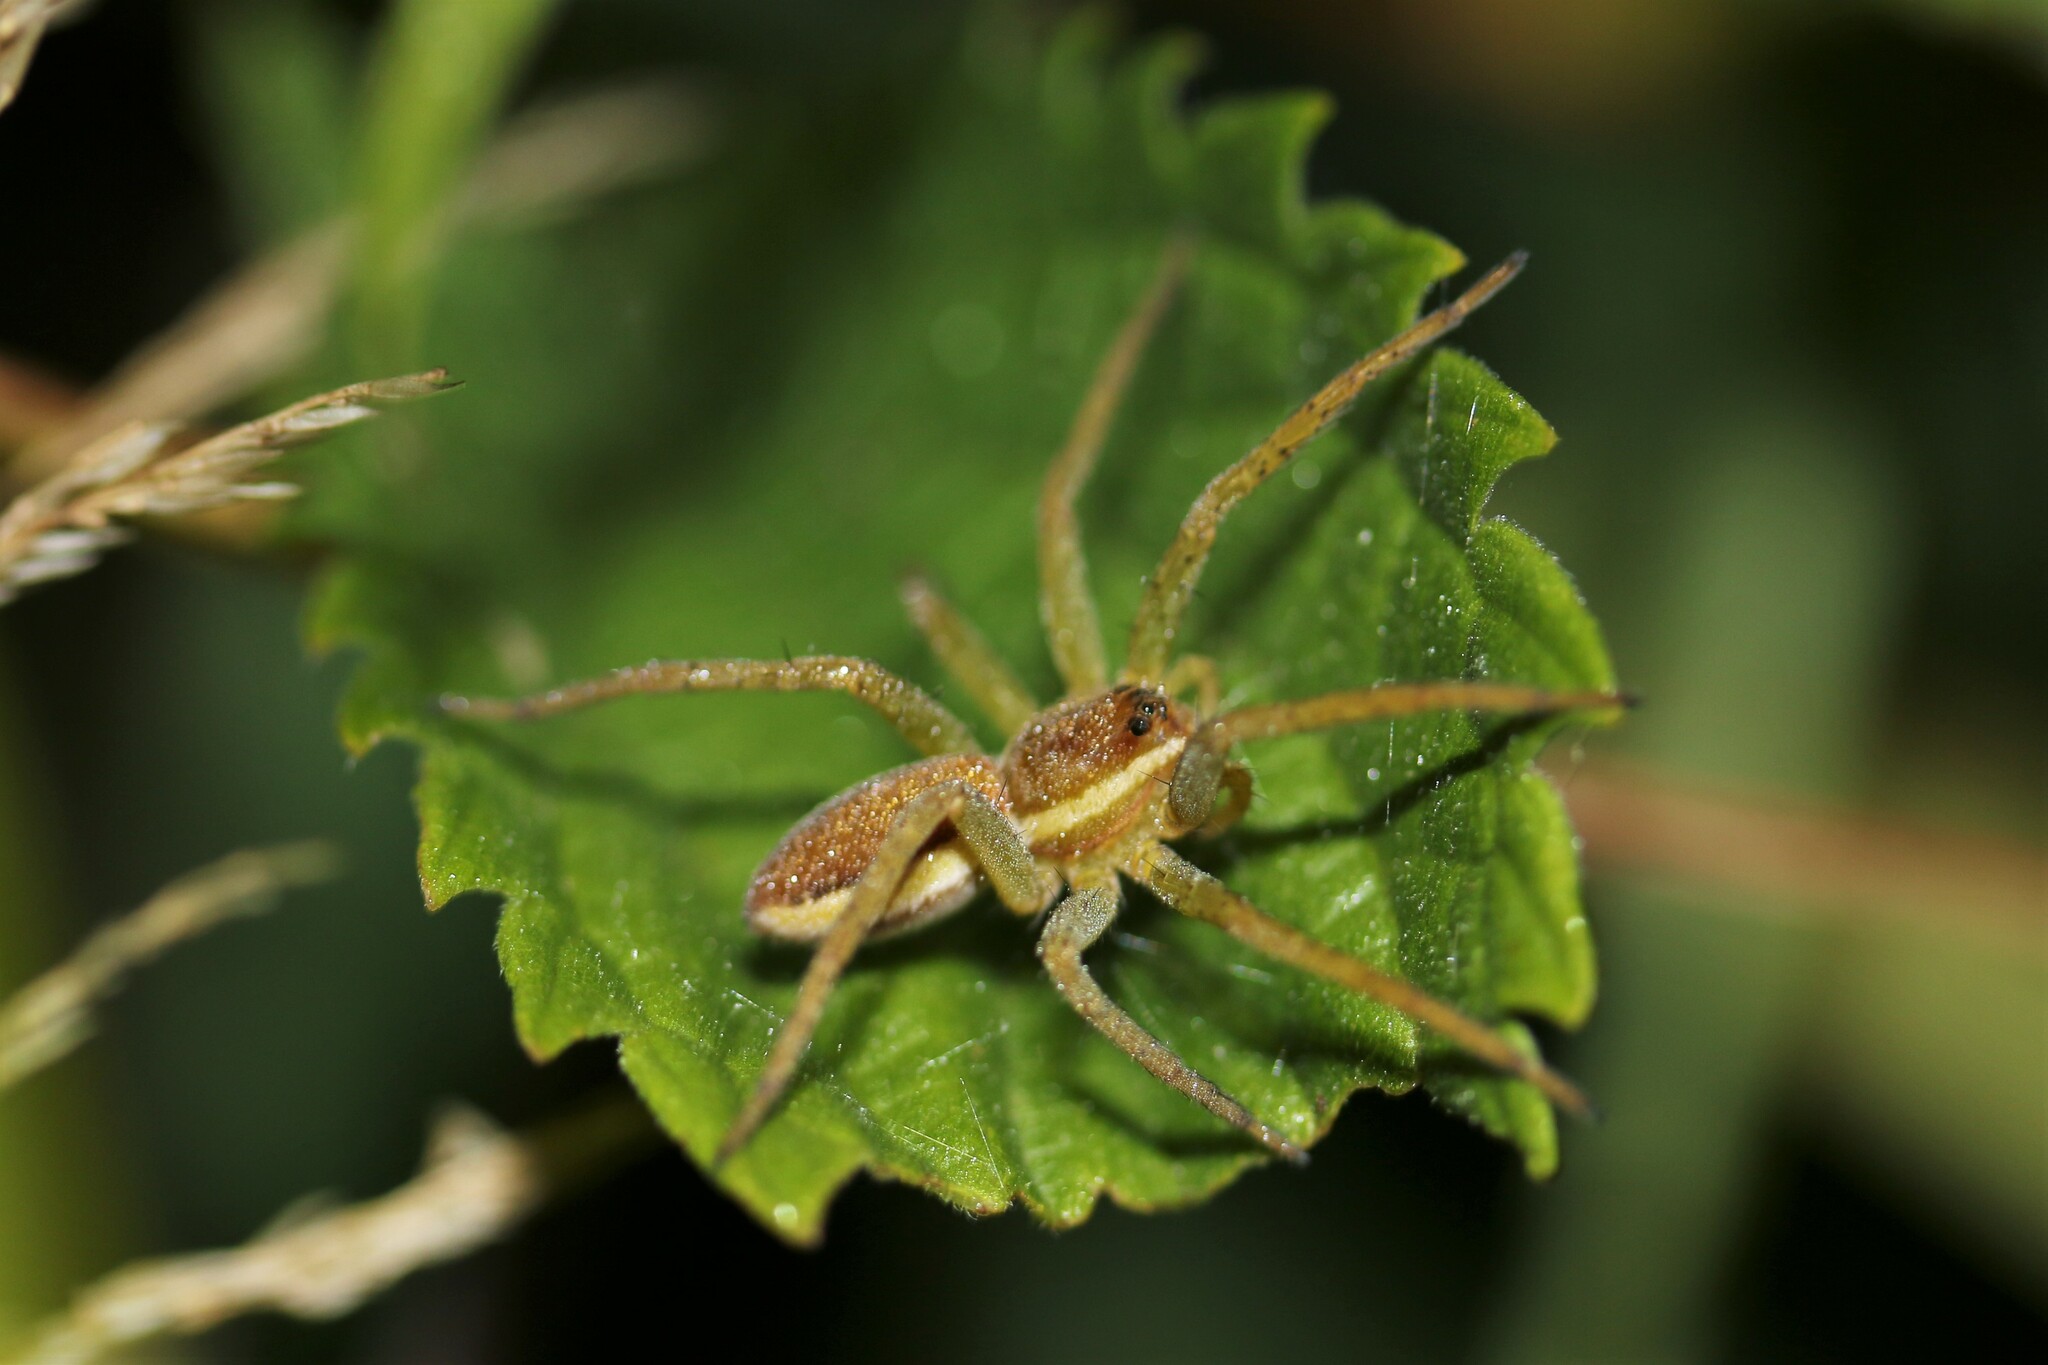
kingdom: Animalia
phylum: Arthropoda
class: Arachnida
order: Araneae
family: Pisauridae
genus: Dolomedes
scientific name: Dolomedes
